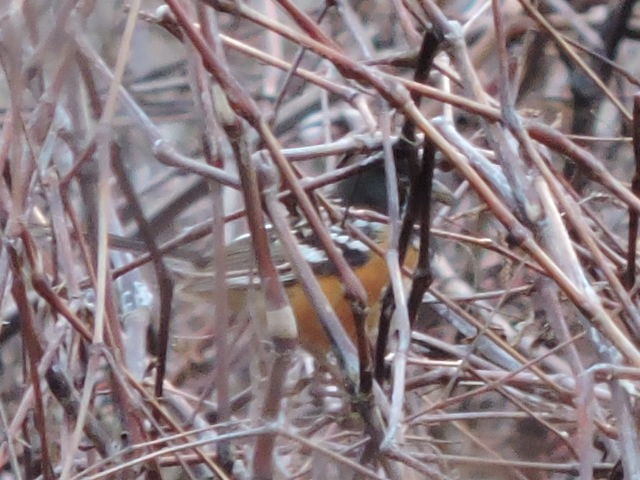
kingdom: Animalia
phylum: Chordata
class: Aves
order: Passeriformes
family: Passerellidae
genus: Pipilo
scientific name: Pipilo maculatus
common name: Spotted towhee
